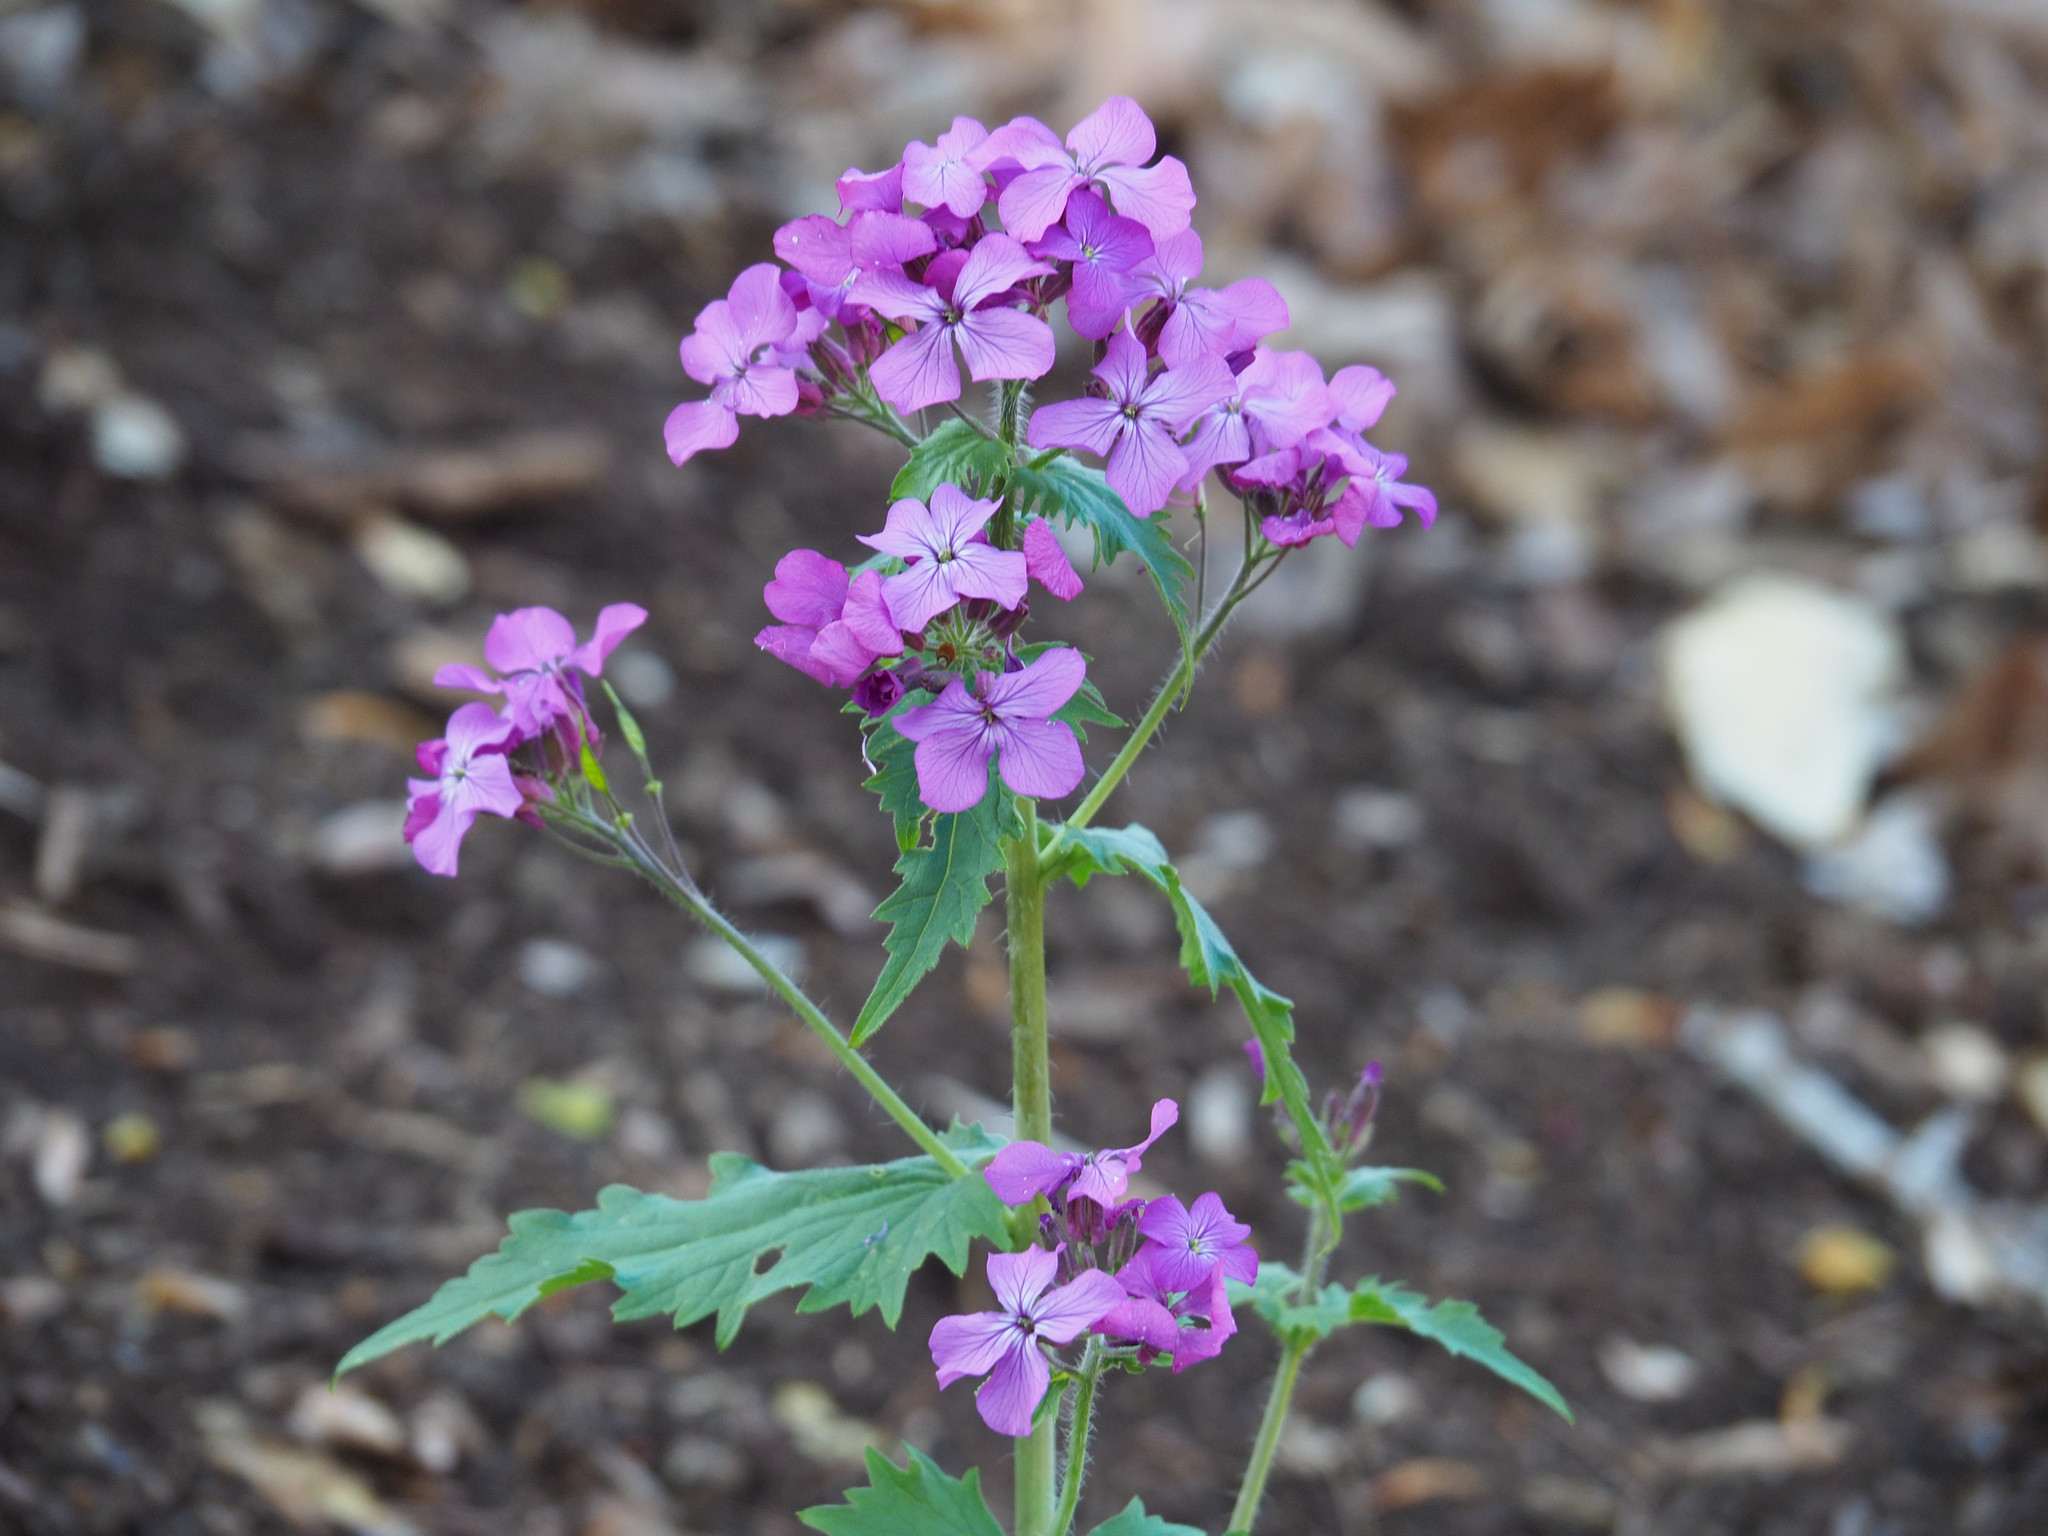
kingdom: Plantae
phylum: Tracheophyta
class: Magnoliopsida
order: Brassicales
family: Brassicaceae
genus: Lunaria
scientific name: Lunaria annua
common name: Honesty
